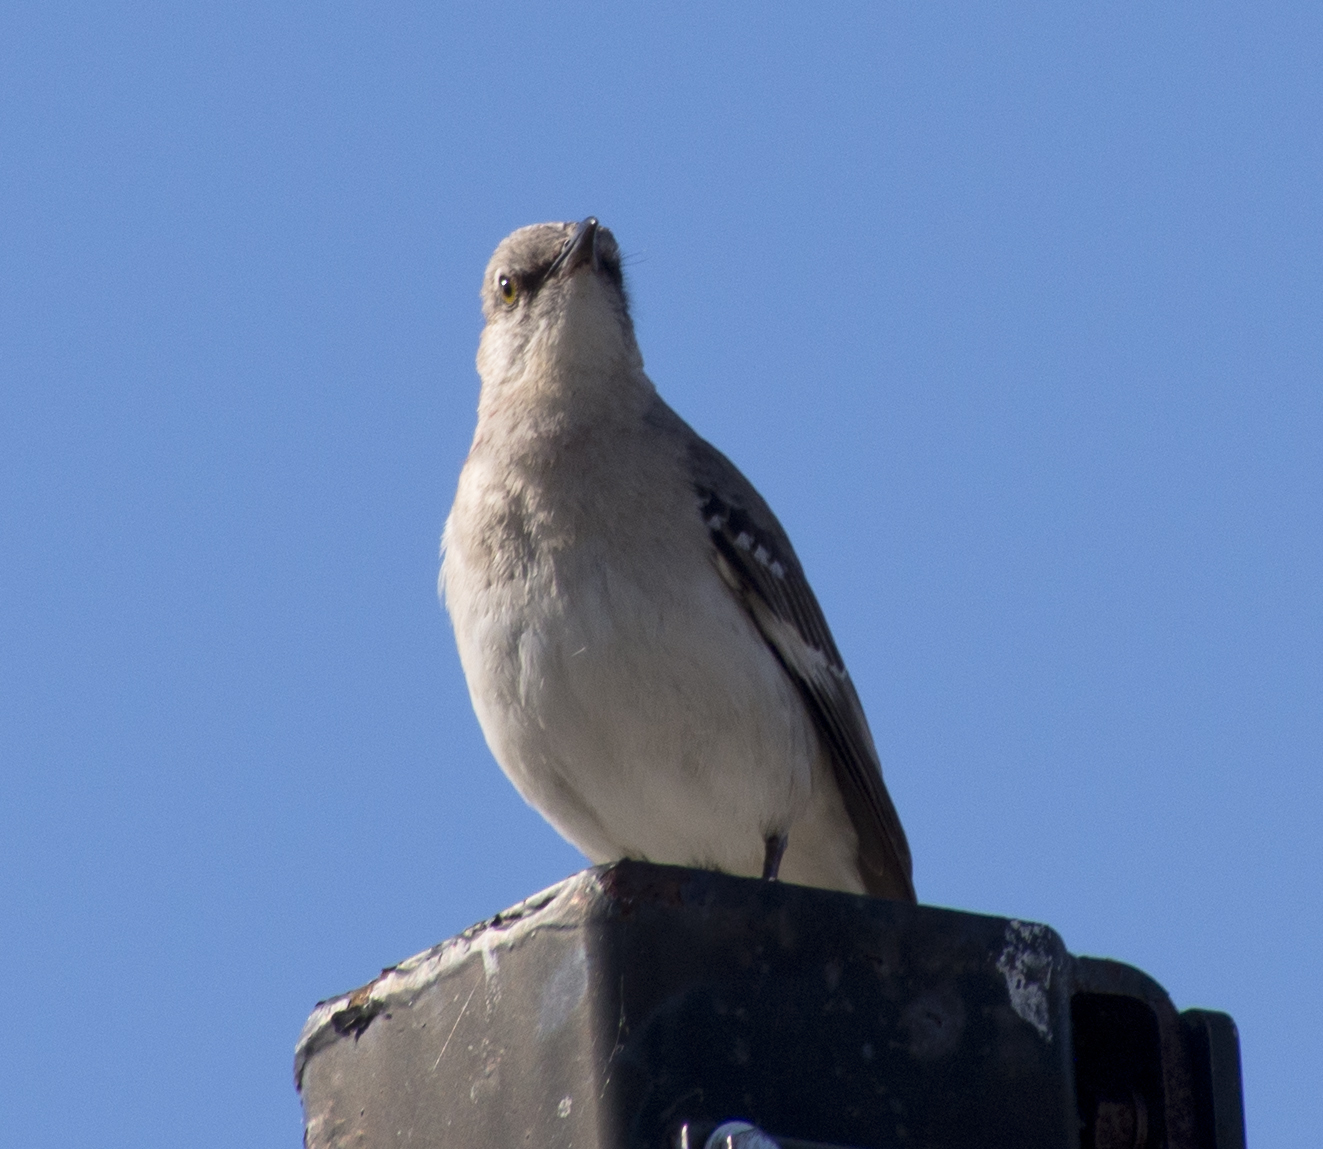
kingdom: Animalia
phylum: Chordata
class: Aves
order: Passeriformes
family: Mimidae
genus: Mimus
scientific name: Mimus polyglottos
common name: Northern mockingbird
